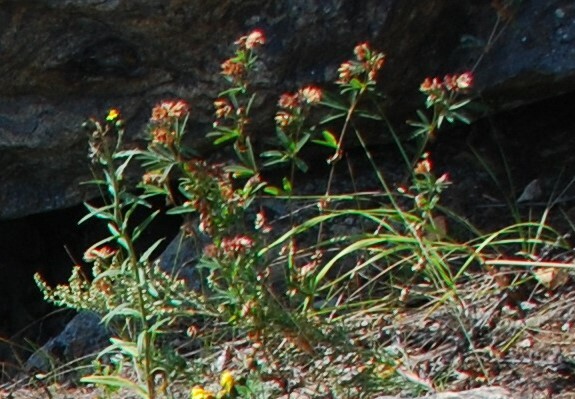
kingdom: Plantae
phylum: Tracheophyta
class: Magnoliopsida
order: Fabales
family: Fabaceae
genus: Trifolium
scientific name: Trifolium lupinaster
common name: Lupine clover
